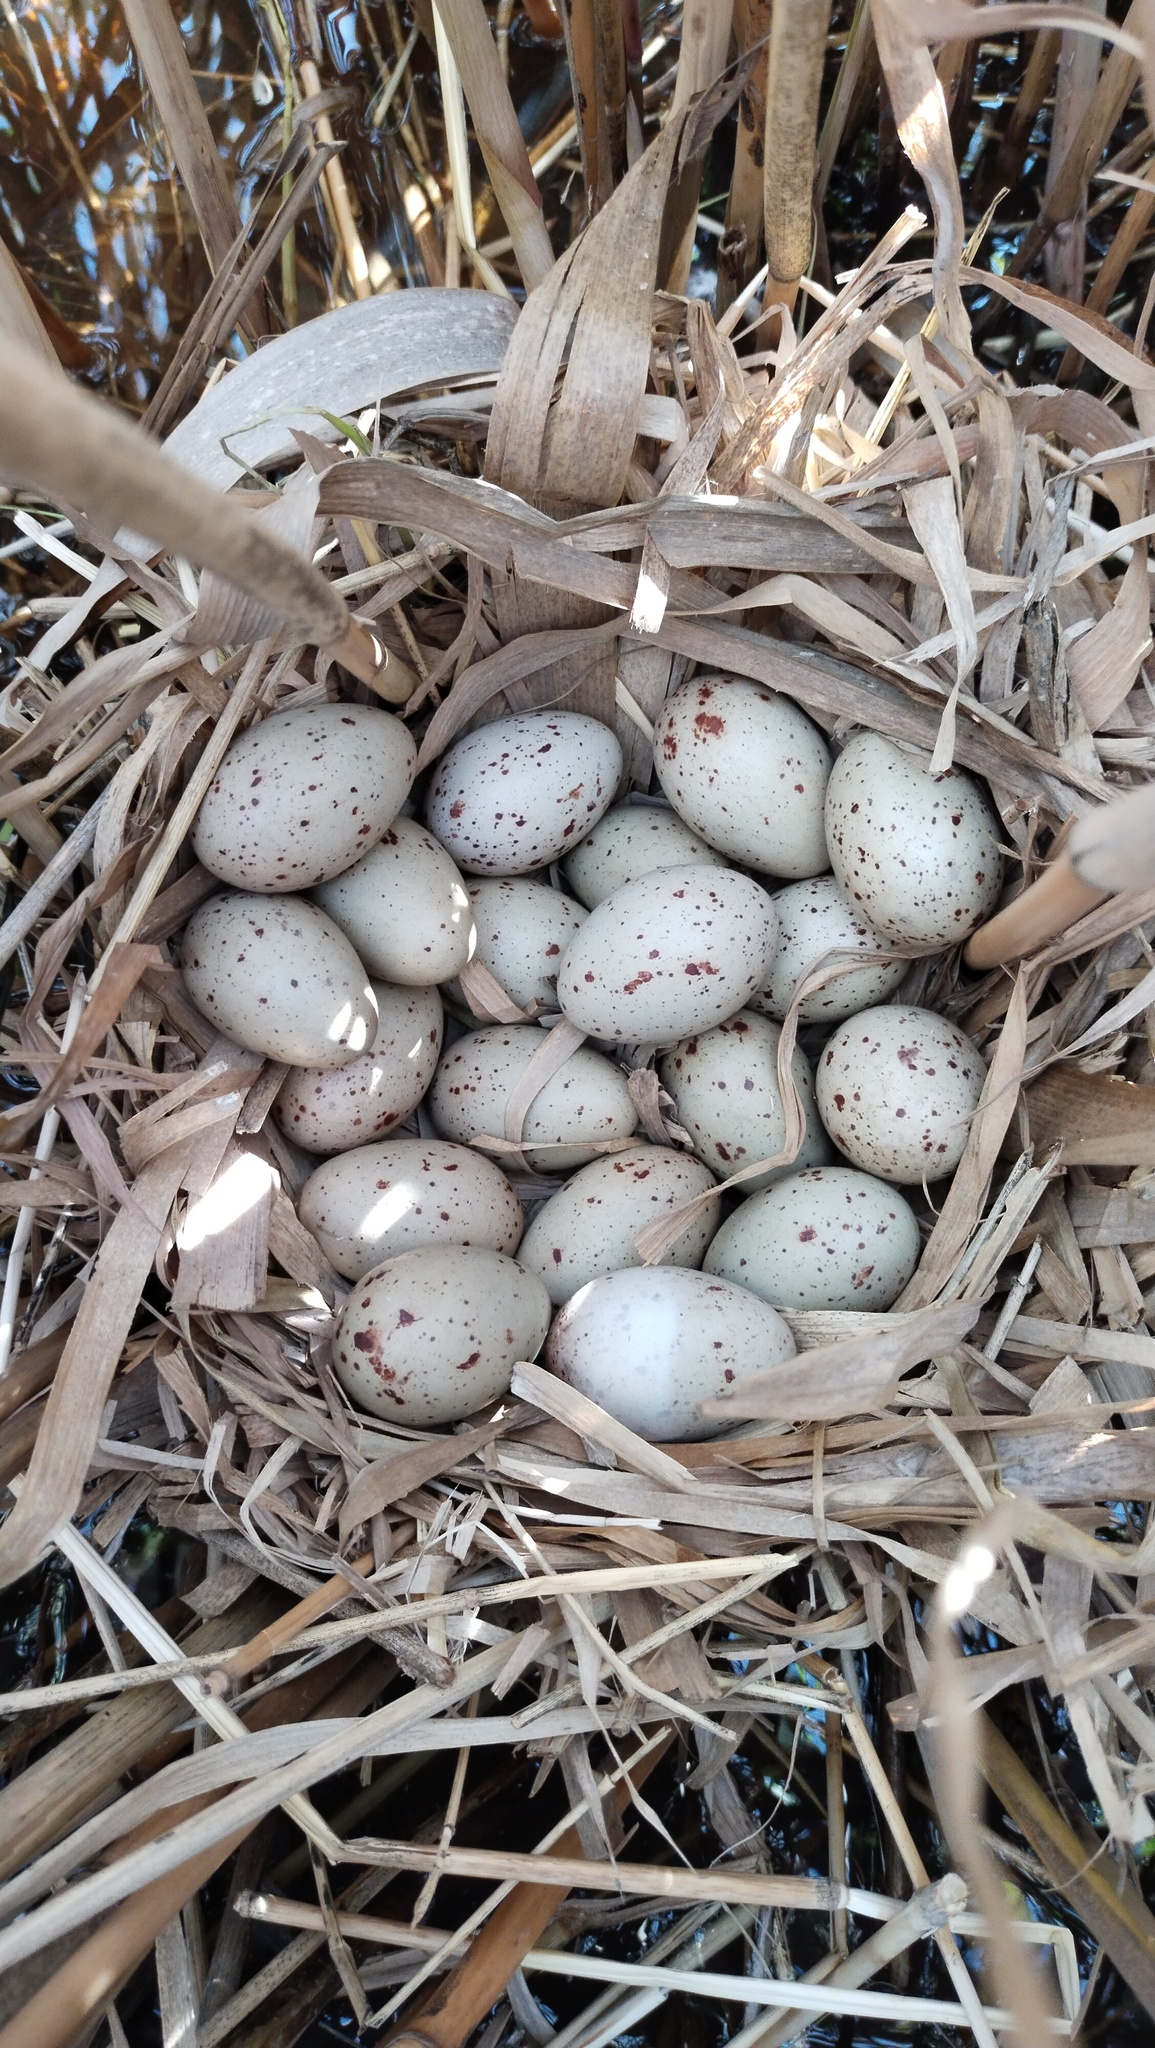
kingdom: Animalia
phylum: Chordata
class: Aves
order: Gruiformes
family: Rallidae
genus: Gallinula
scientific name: Gallinula chloropus
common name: Common moorhen
